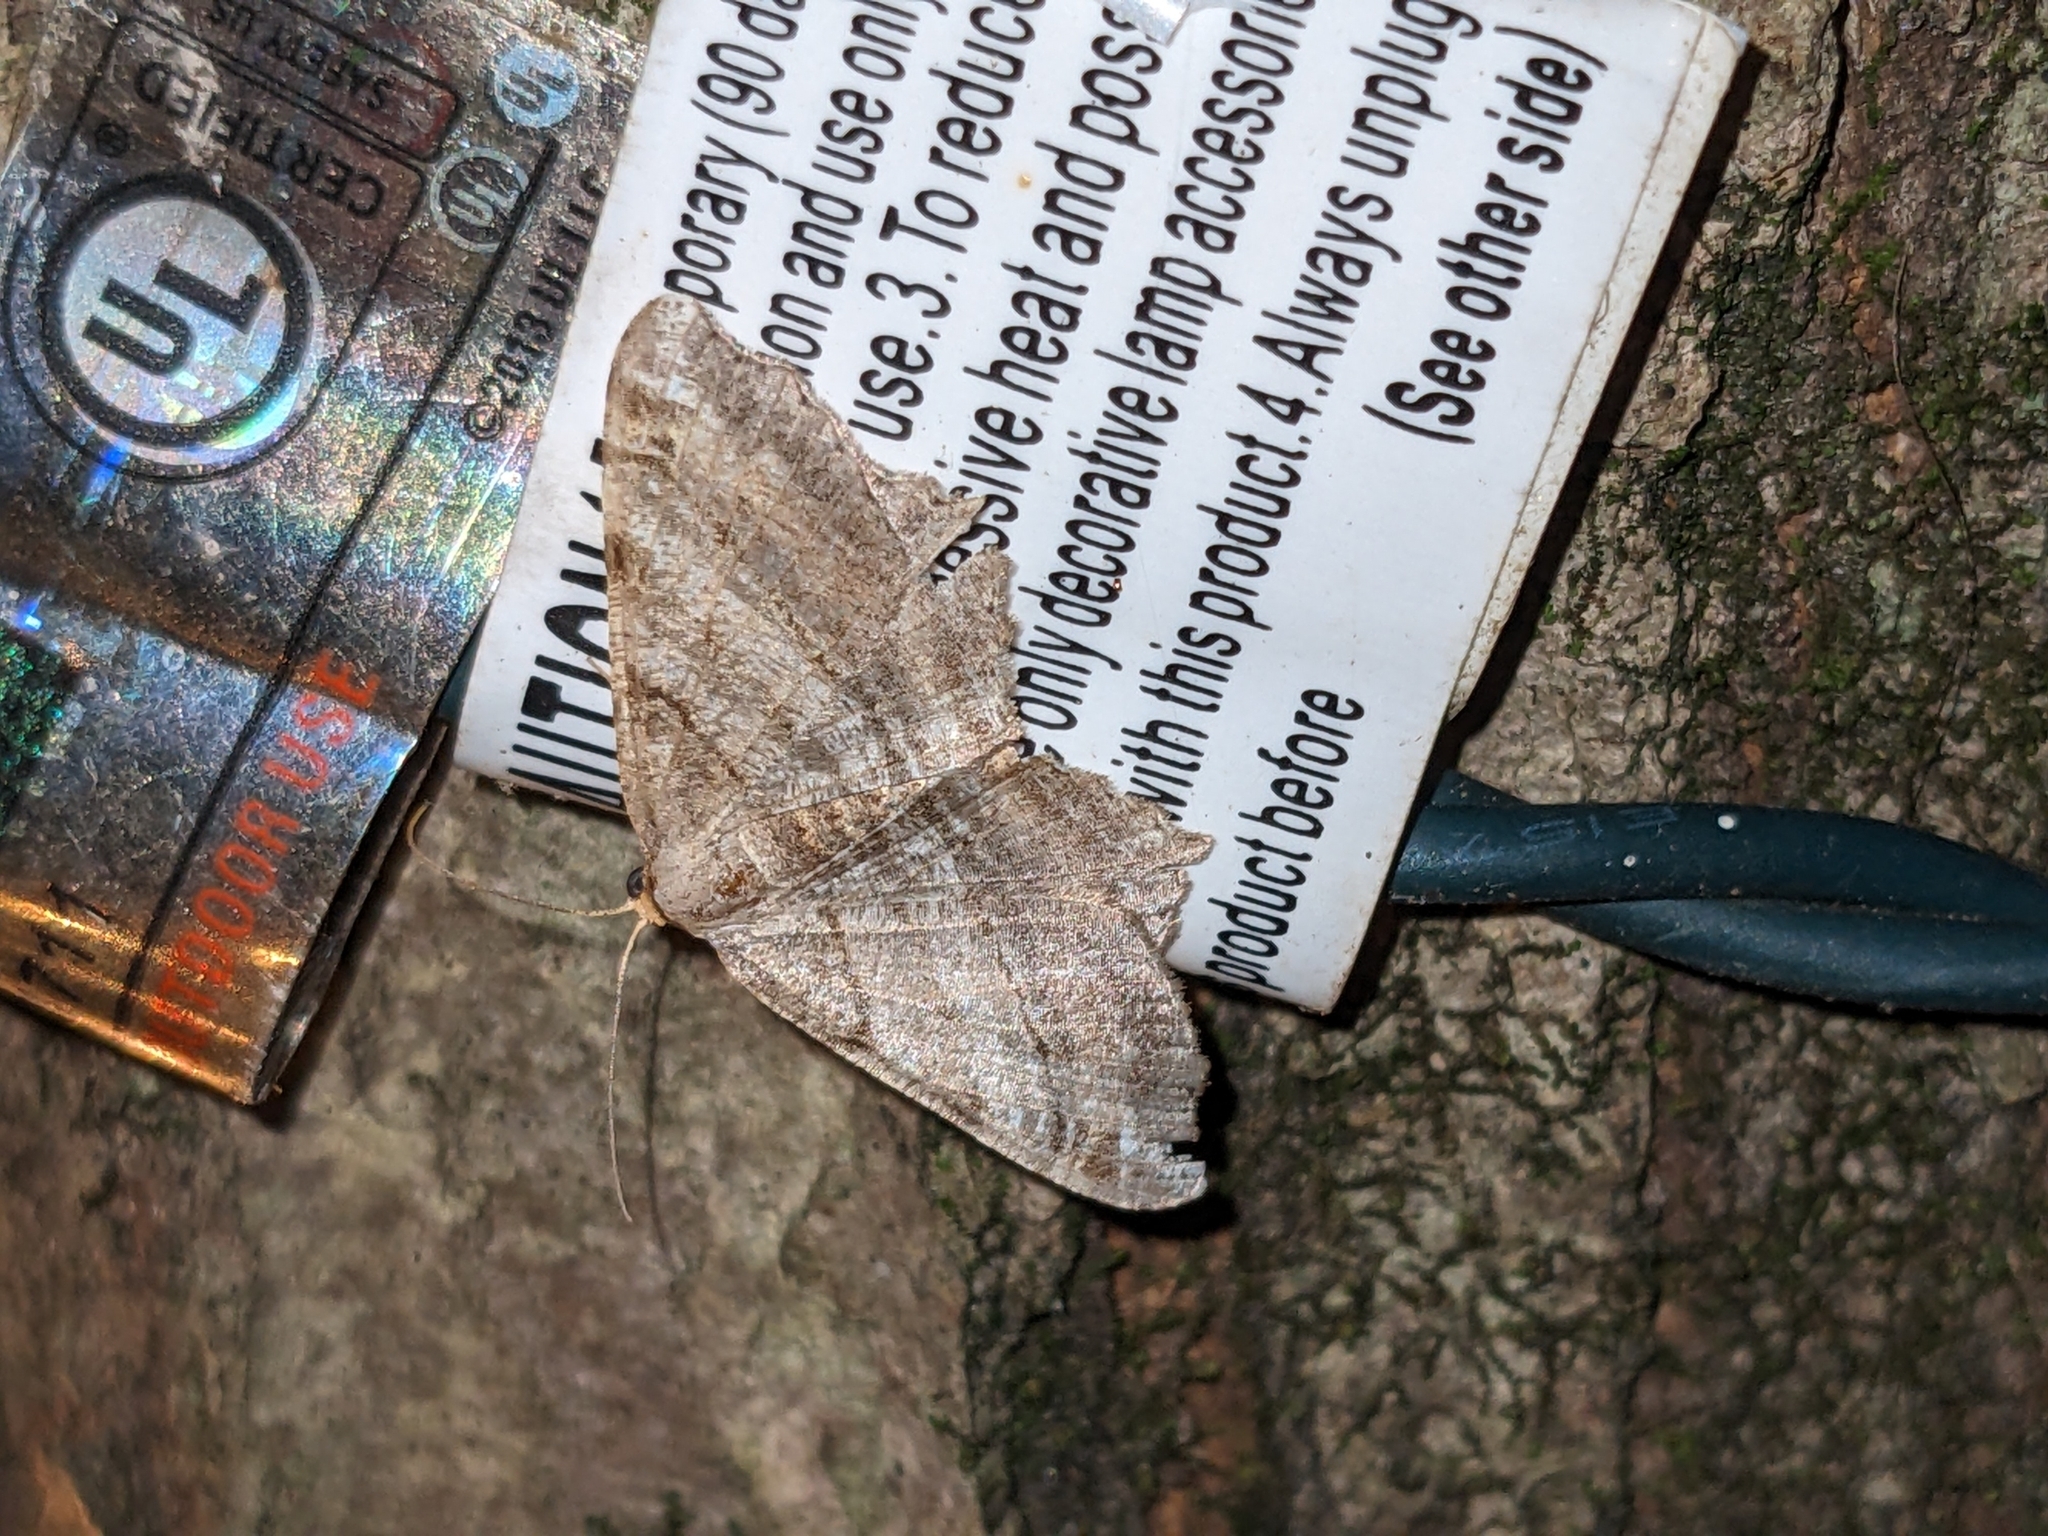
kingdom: Animalia
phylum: Arthropoda
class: Insecta
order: Lepidoptera
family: Geometridae
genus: Macaria
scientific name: Macaria multilineata
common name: Many-lined angle
